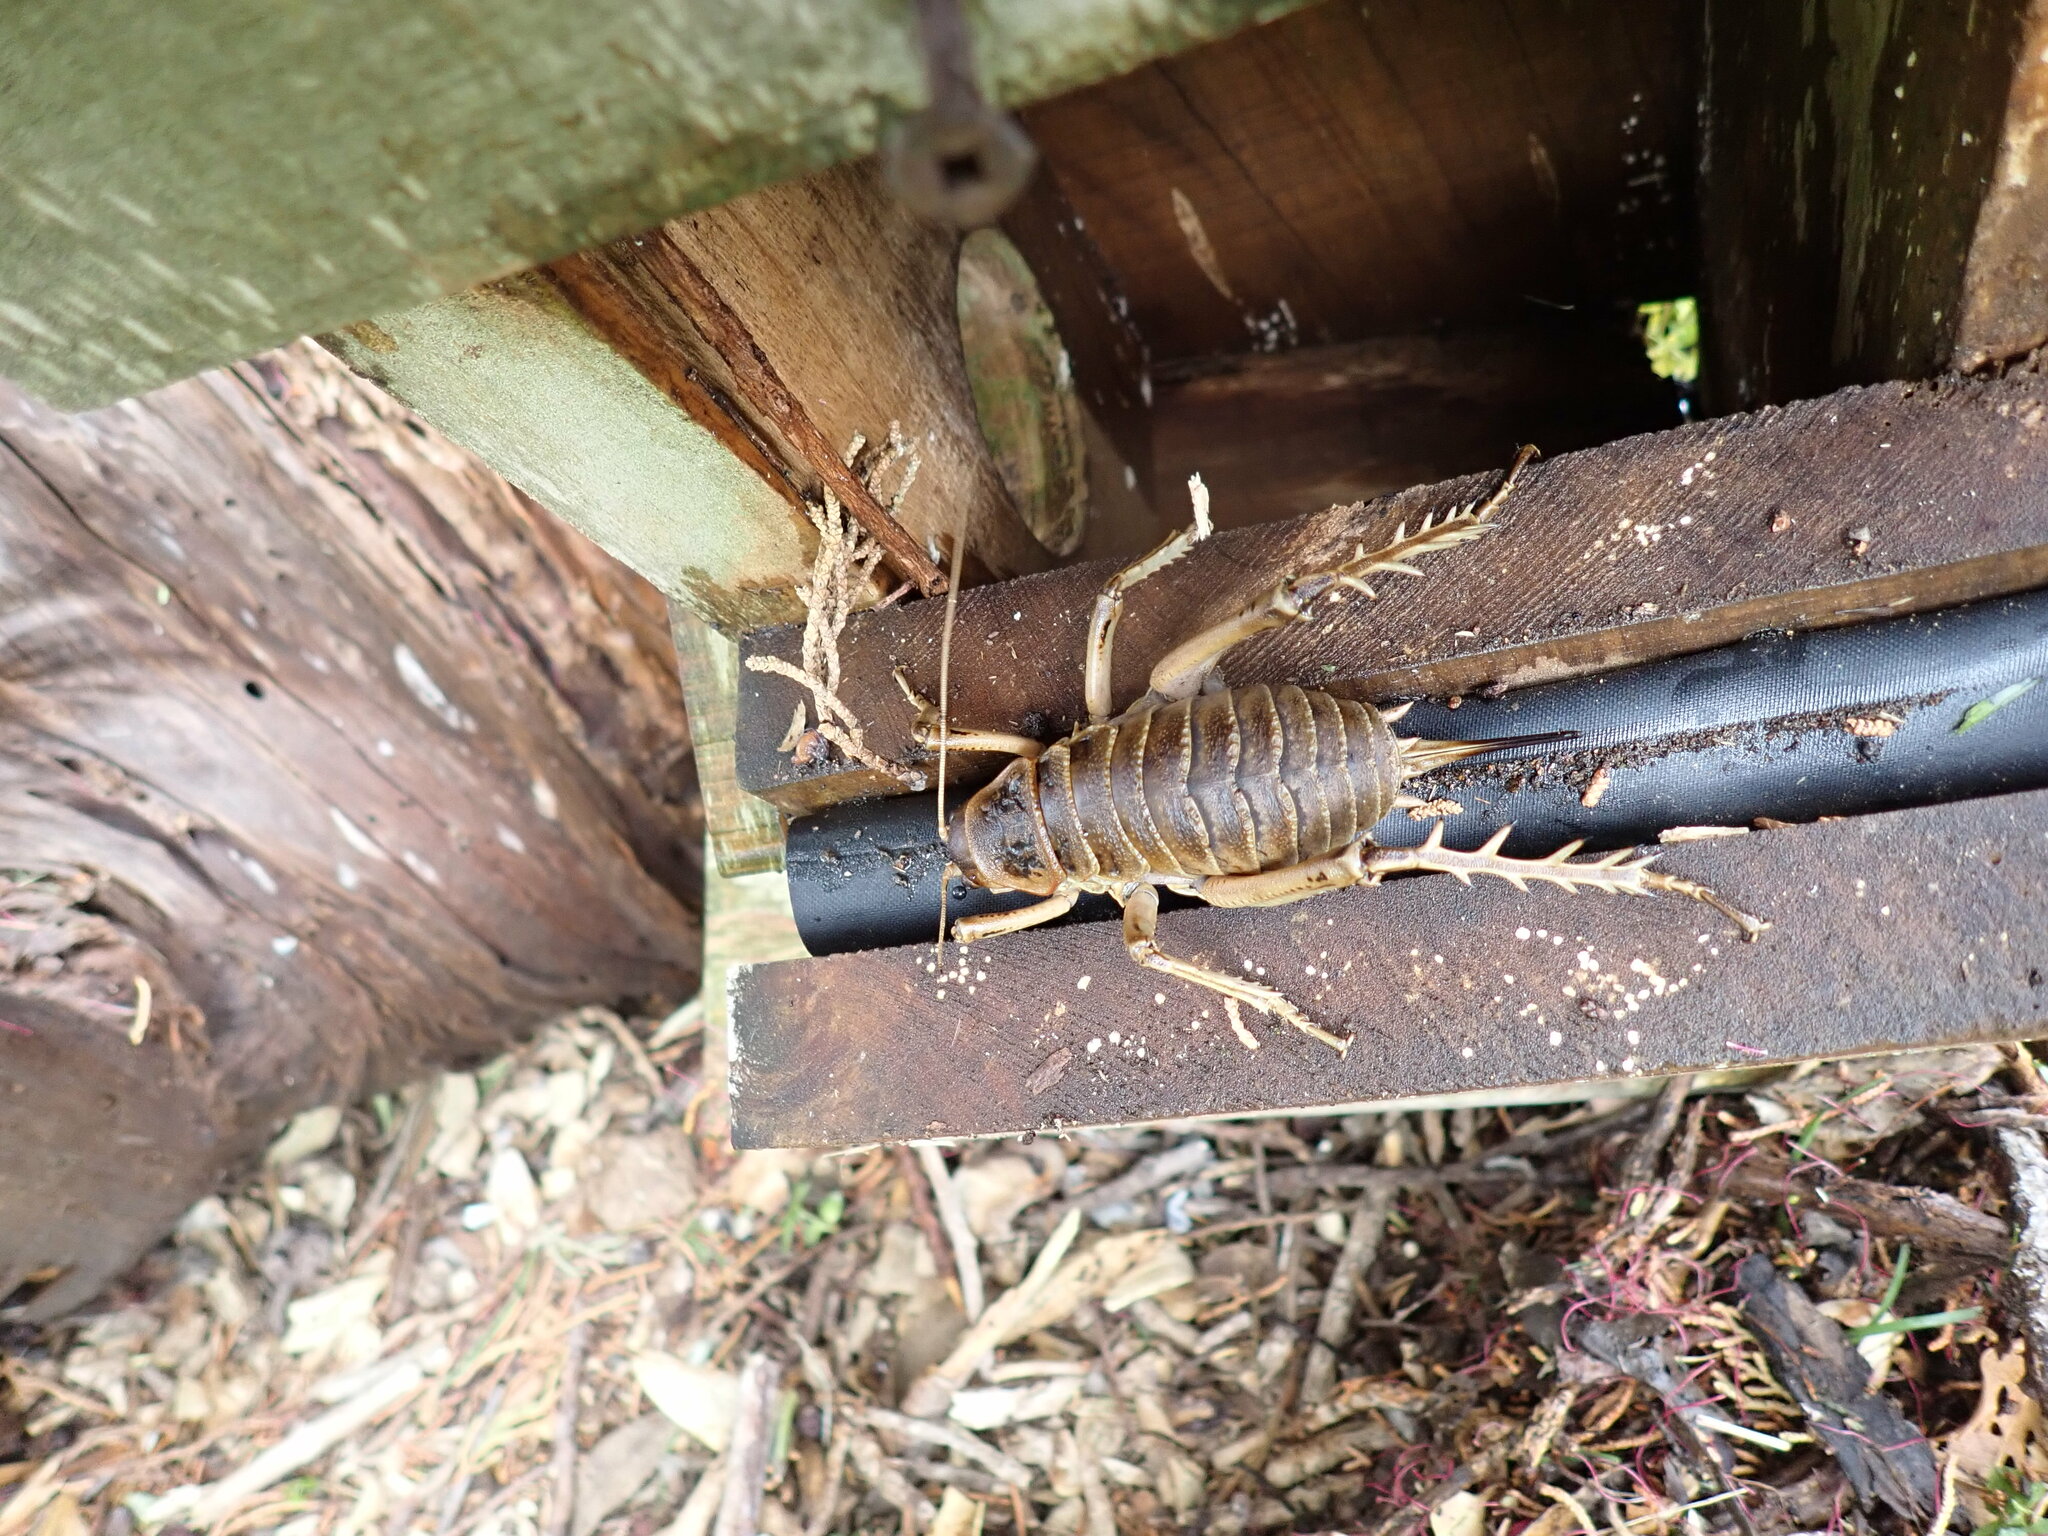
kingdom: Animalia
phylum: Arthropoda
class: Insecta
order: Orthoptera
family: Anostostomatidae
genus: Deinacrida
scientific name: Deinacrida rugosa
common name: Stephens island weta
